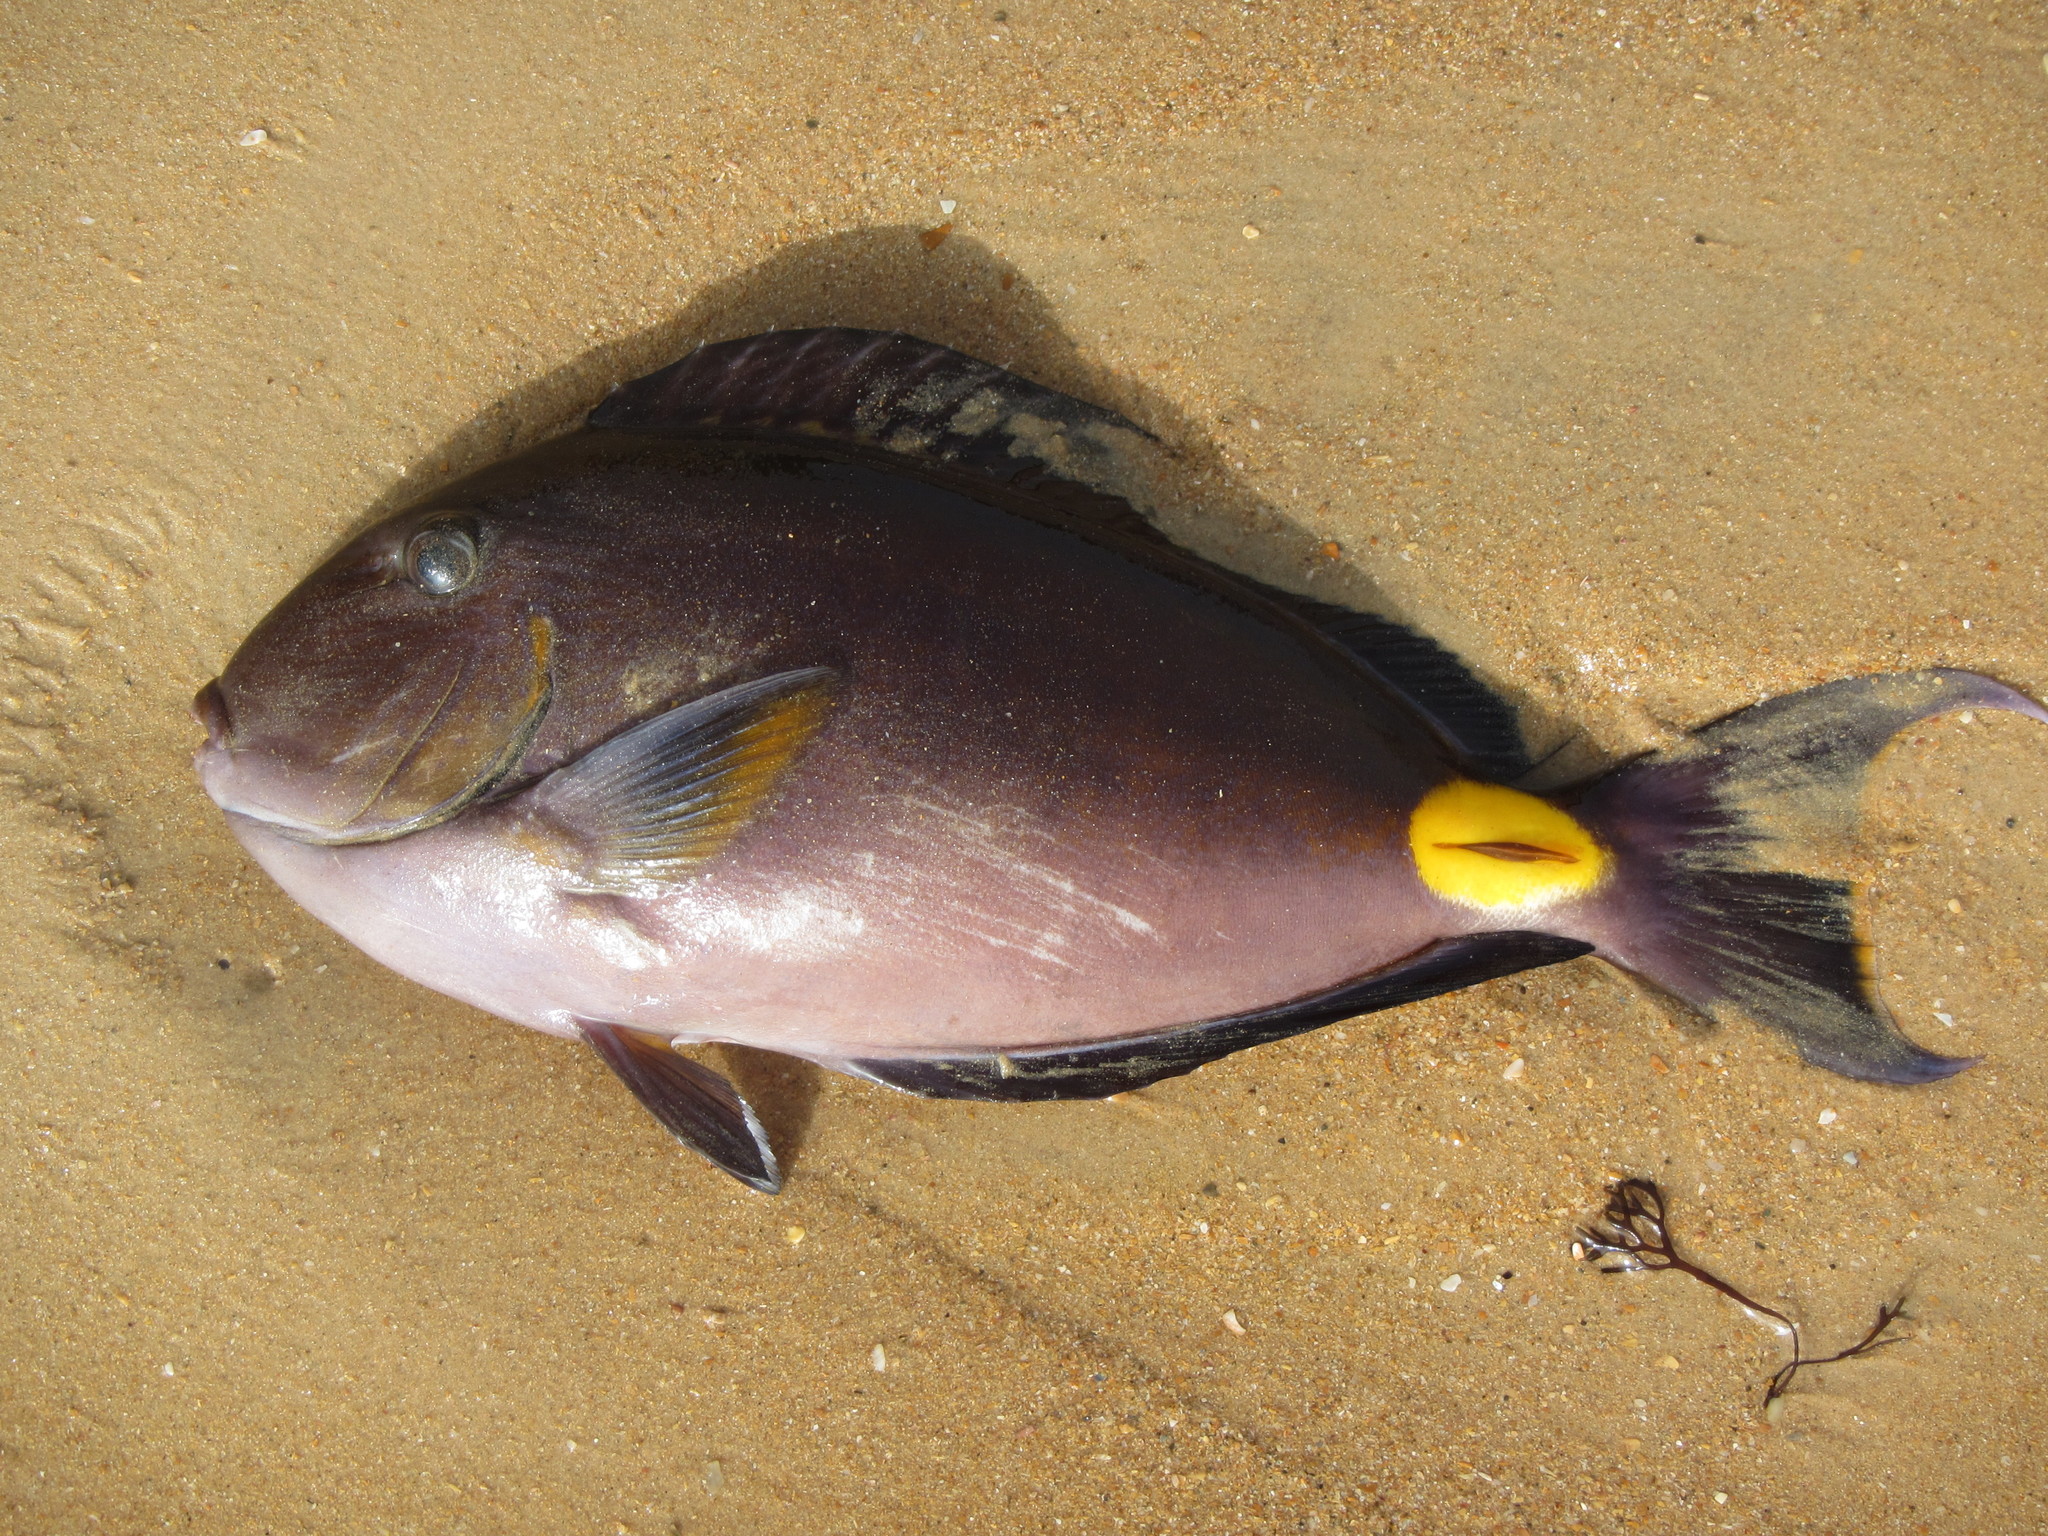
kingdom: Animalia
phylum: Chordata
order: Perciformes
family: Acanthuridae
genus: Acanthurus
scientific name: Acanthurus monroviae
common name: Monrovia surgeonfish
